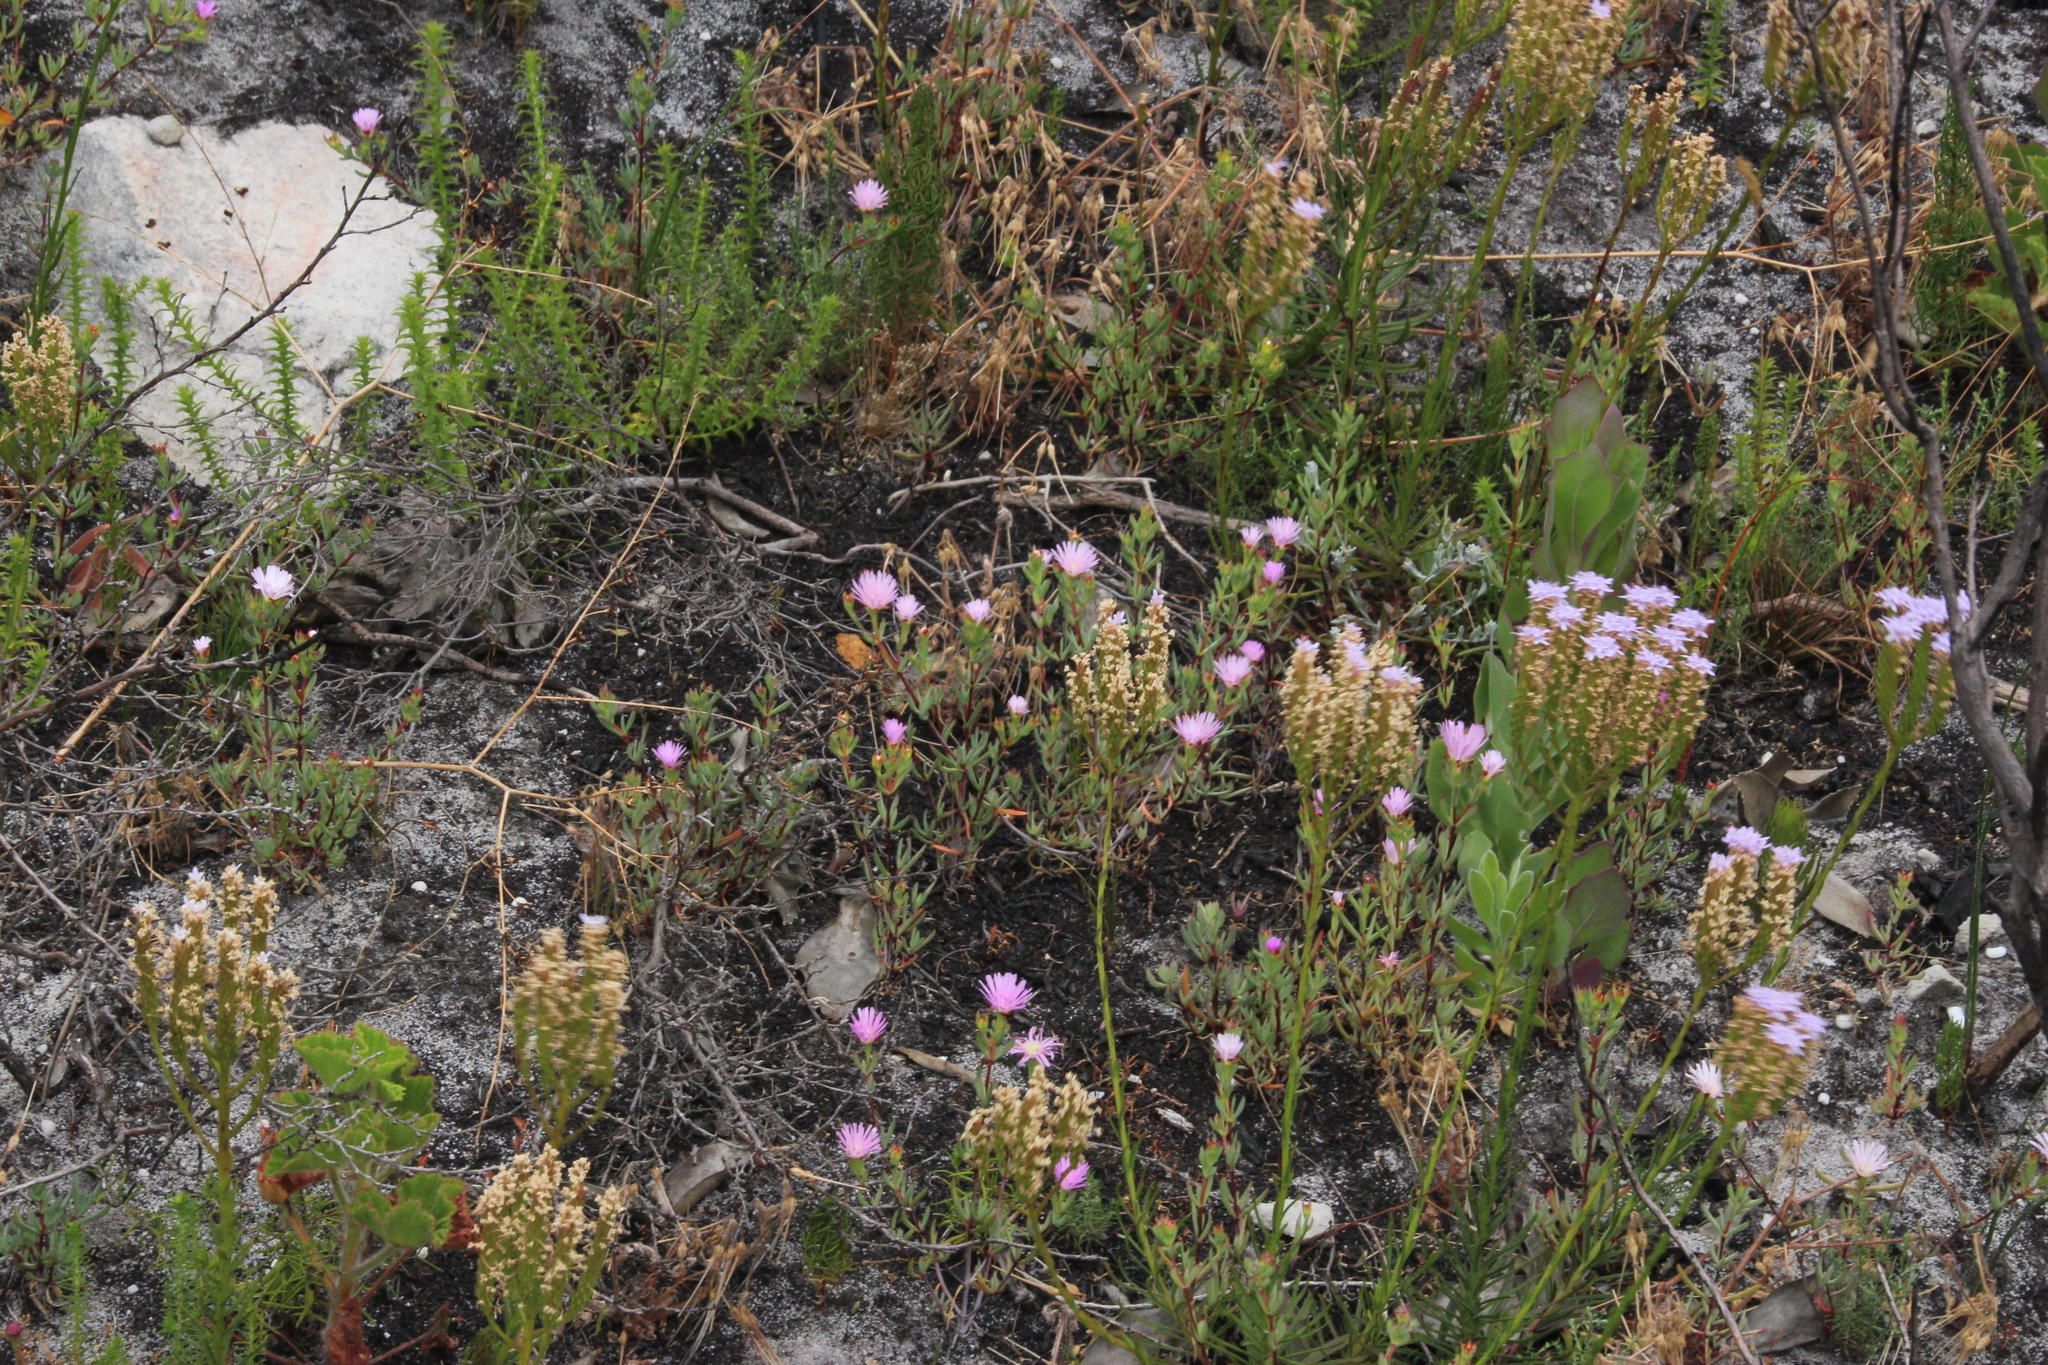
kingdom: Plantae
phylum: Tracheophyta
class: Magnoliopsida
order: Lamiales
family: Scrophulariaceae
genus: Pseudoselago
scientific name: Pseudoselago spuria
